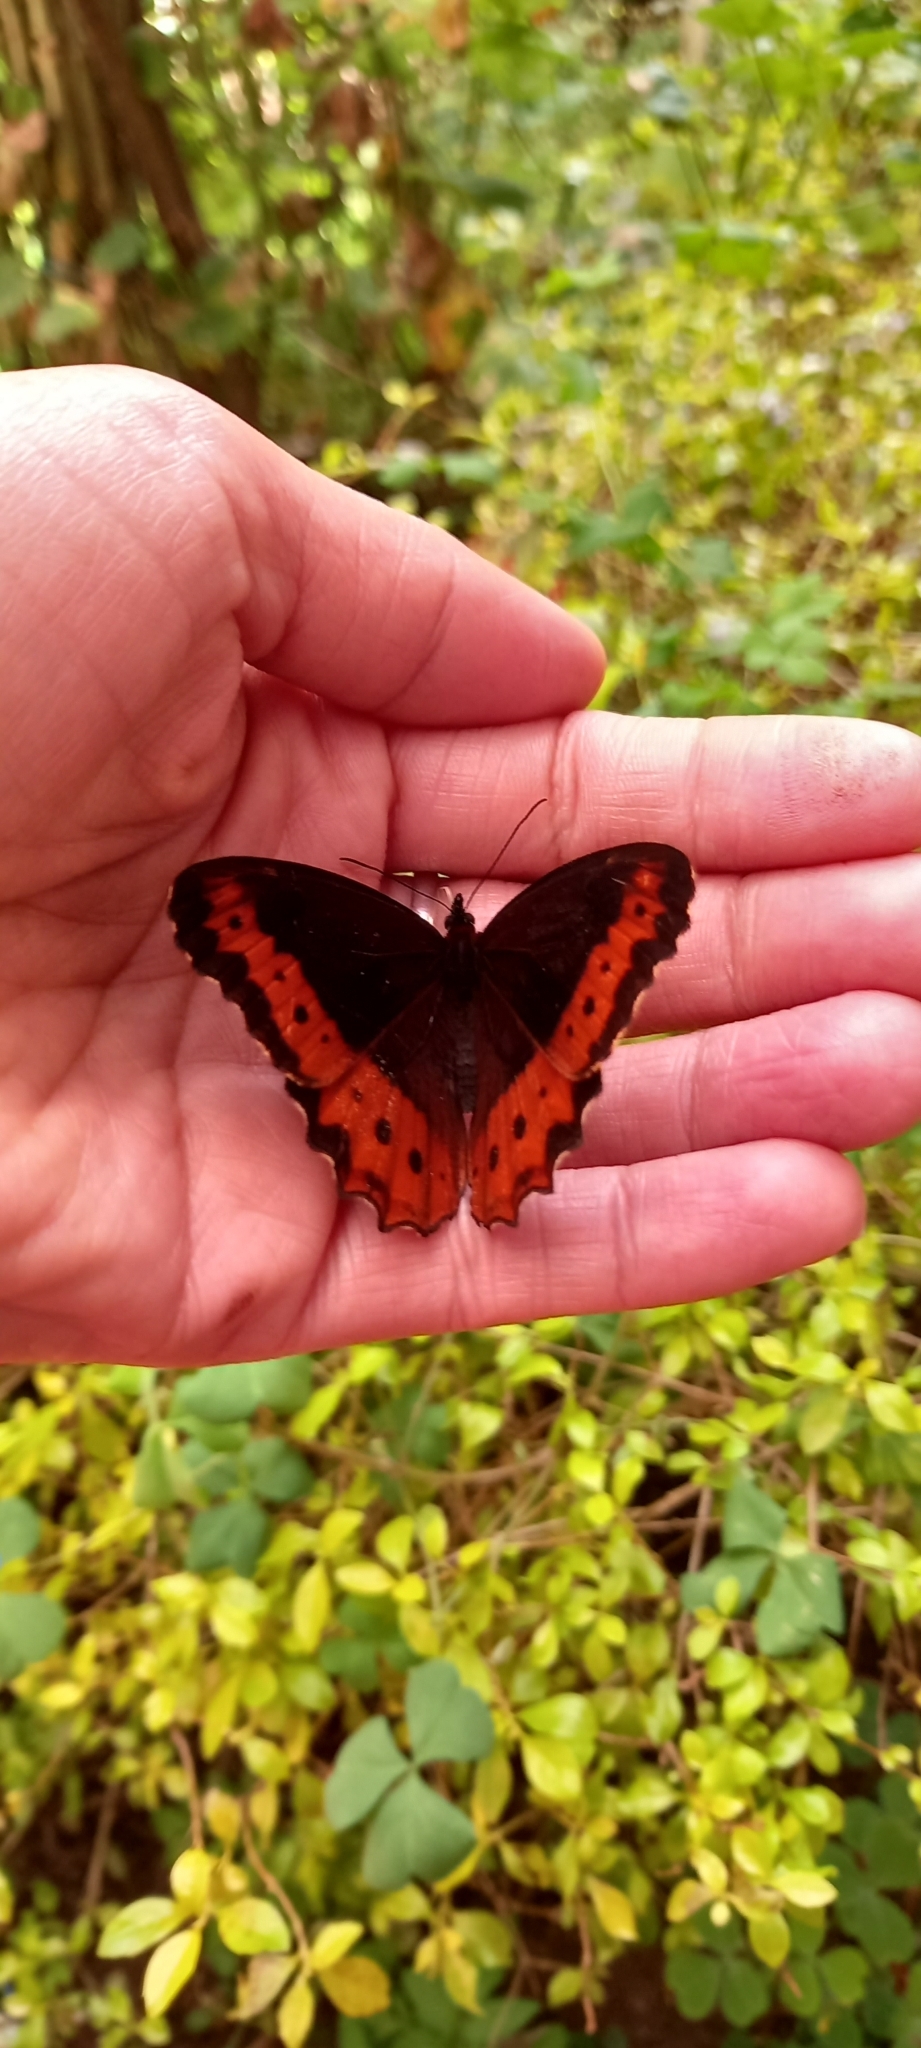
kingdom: Animalia
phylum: Arthropoda
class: Insecta
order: Lepidoptera
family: Nymphalidae
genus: Oxeoschistus
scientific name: Oxeoschistus puerta
